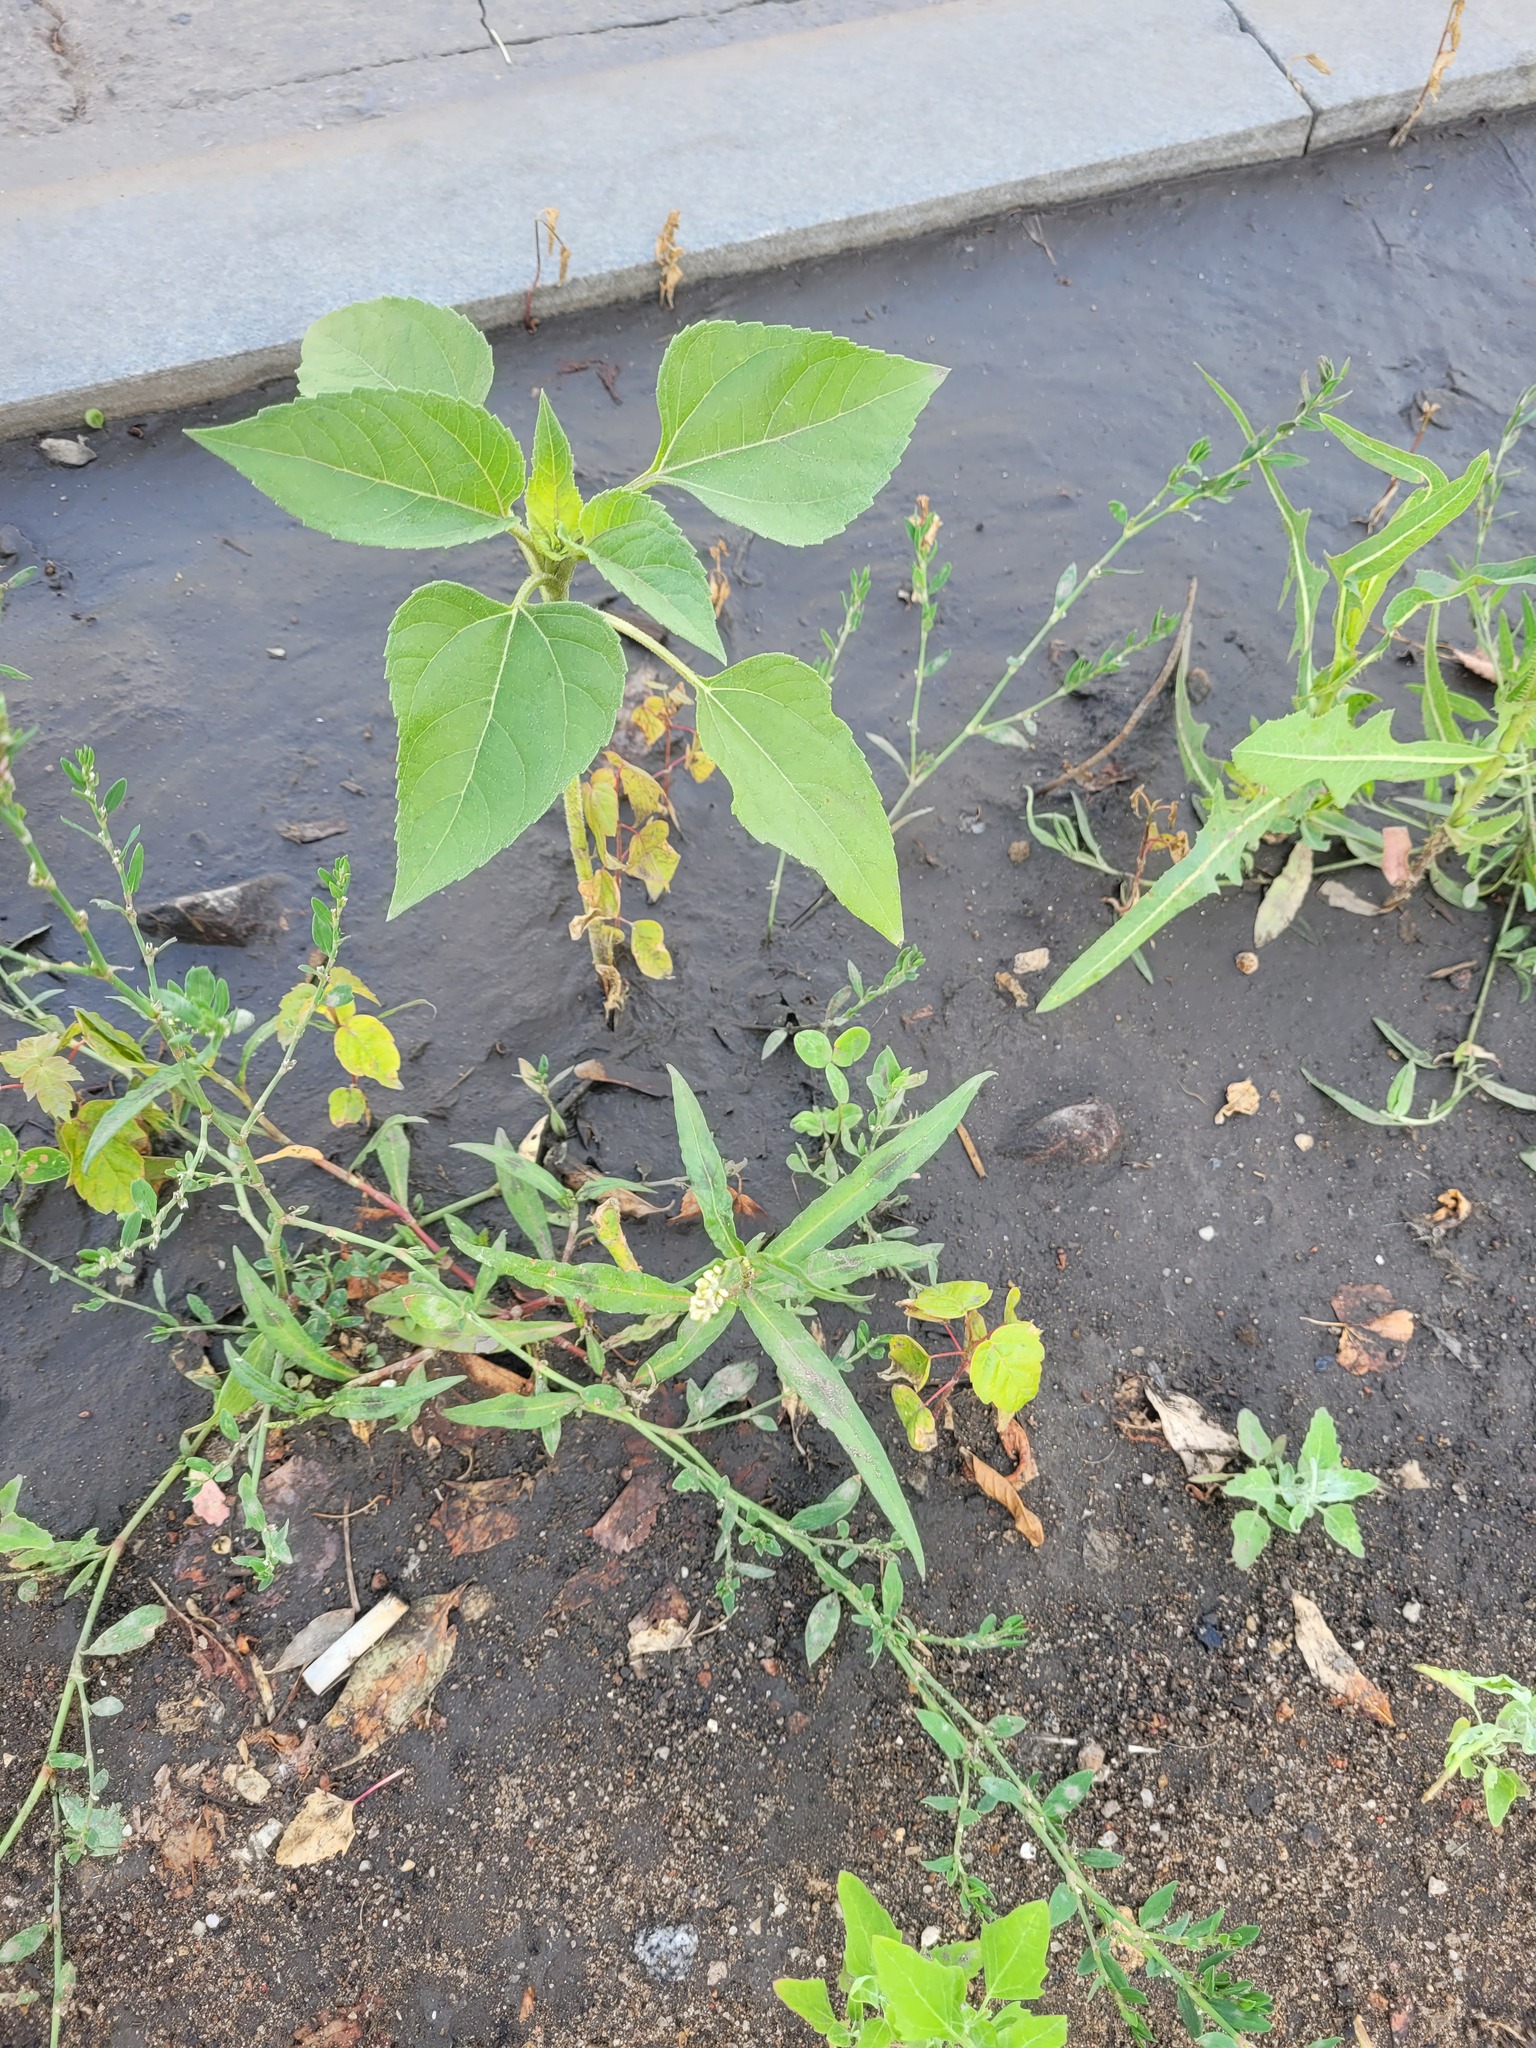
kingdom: Plantae
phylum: Tracheophyta
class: Magnoliopsida
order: Caryophyllales
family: Polygonaceae
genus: Persicaria
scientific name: Persicaria maculosa
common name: Redshank
